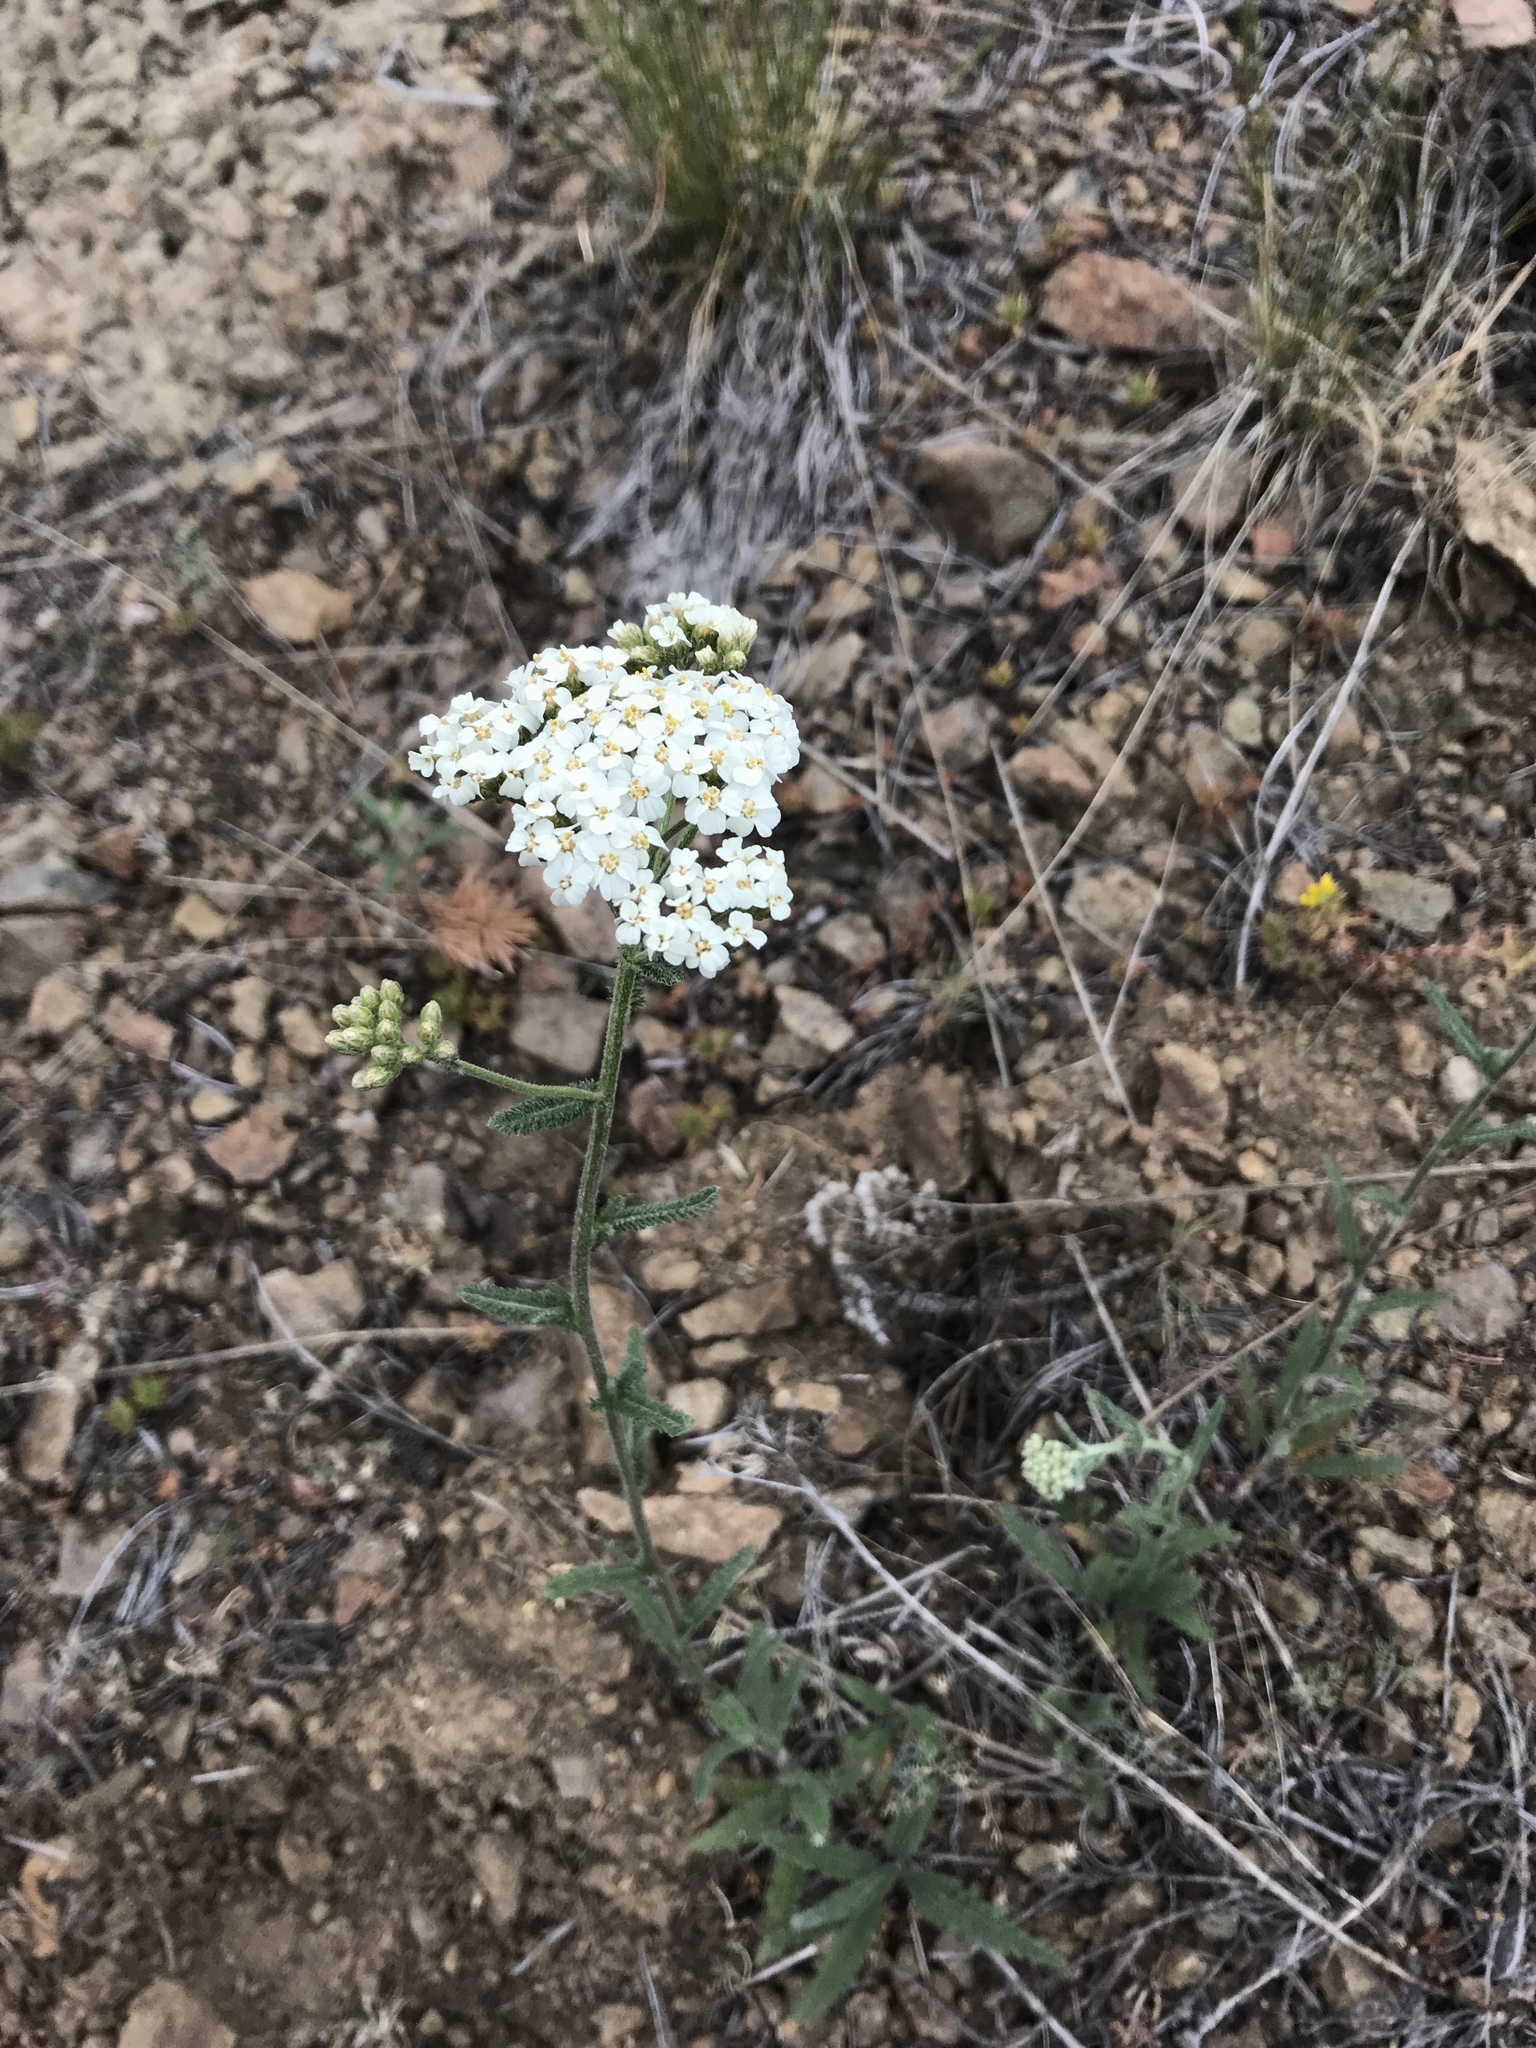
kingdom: Plantae
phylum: Tracheophyta
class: Magnoliopsida
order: Asterales
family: Asteraceae
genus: Achillea
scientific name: Achillea millefolium
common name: Yarrow
